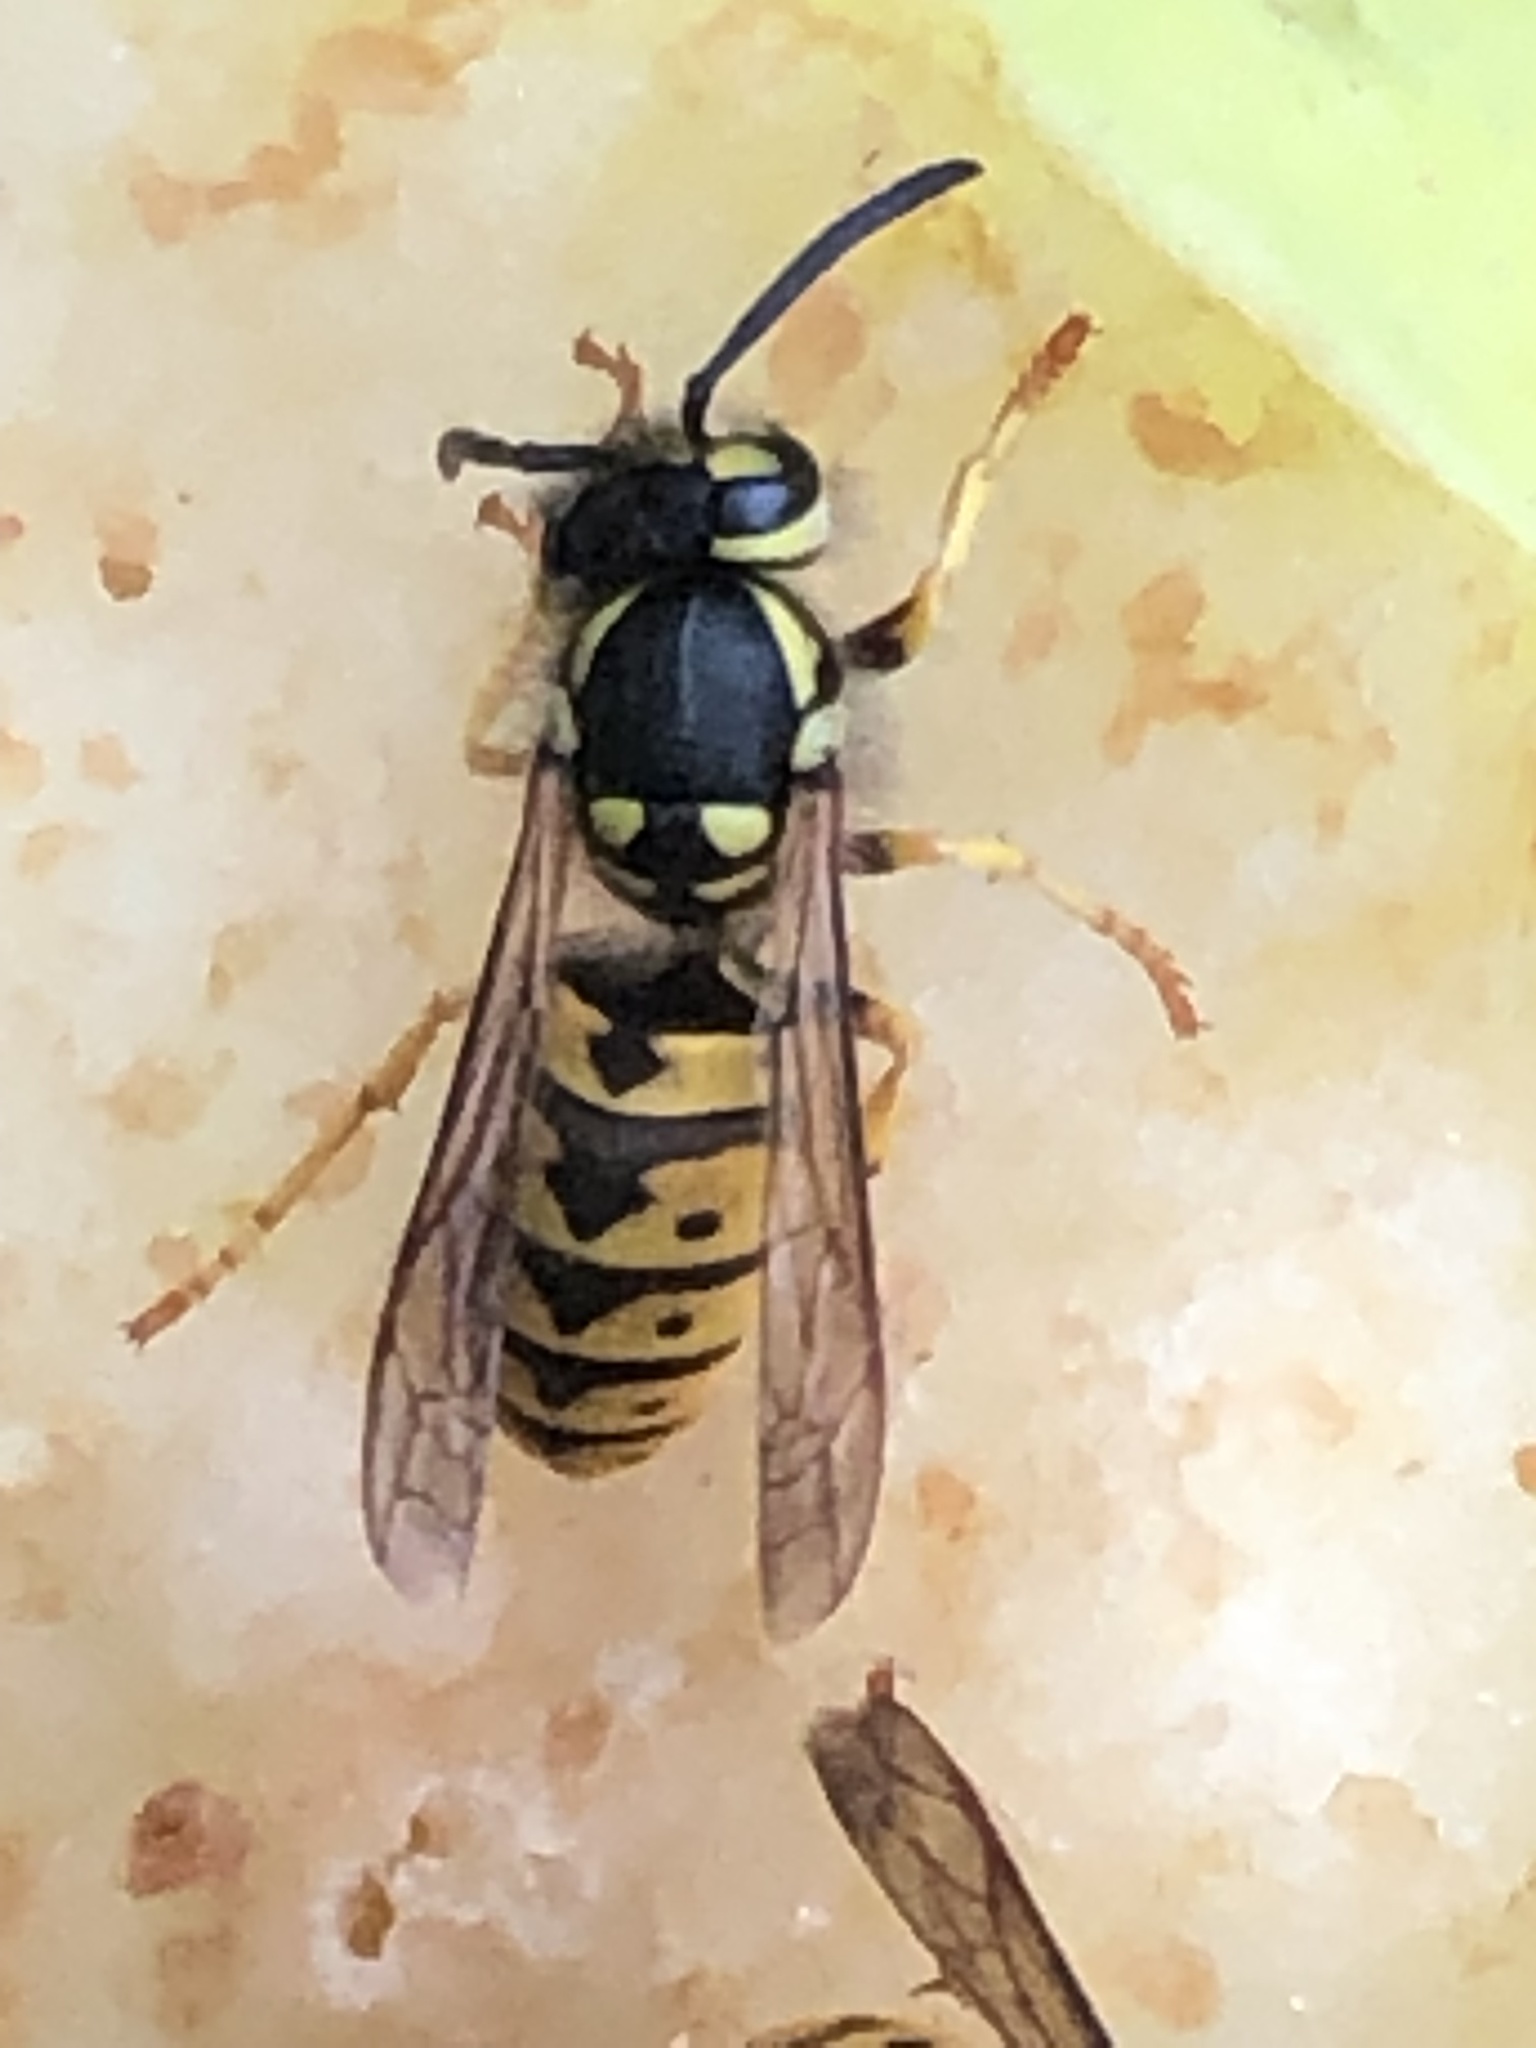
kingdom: Animalia
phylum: Arthropoda
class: Insecta
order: Hymenoptera
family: Vespidae
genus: Vespula
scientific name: Vespula germanica
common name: German wasp
